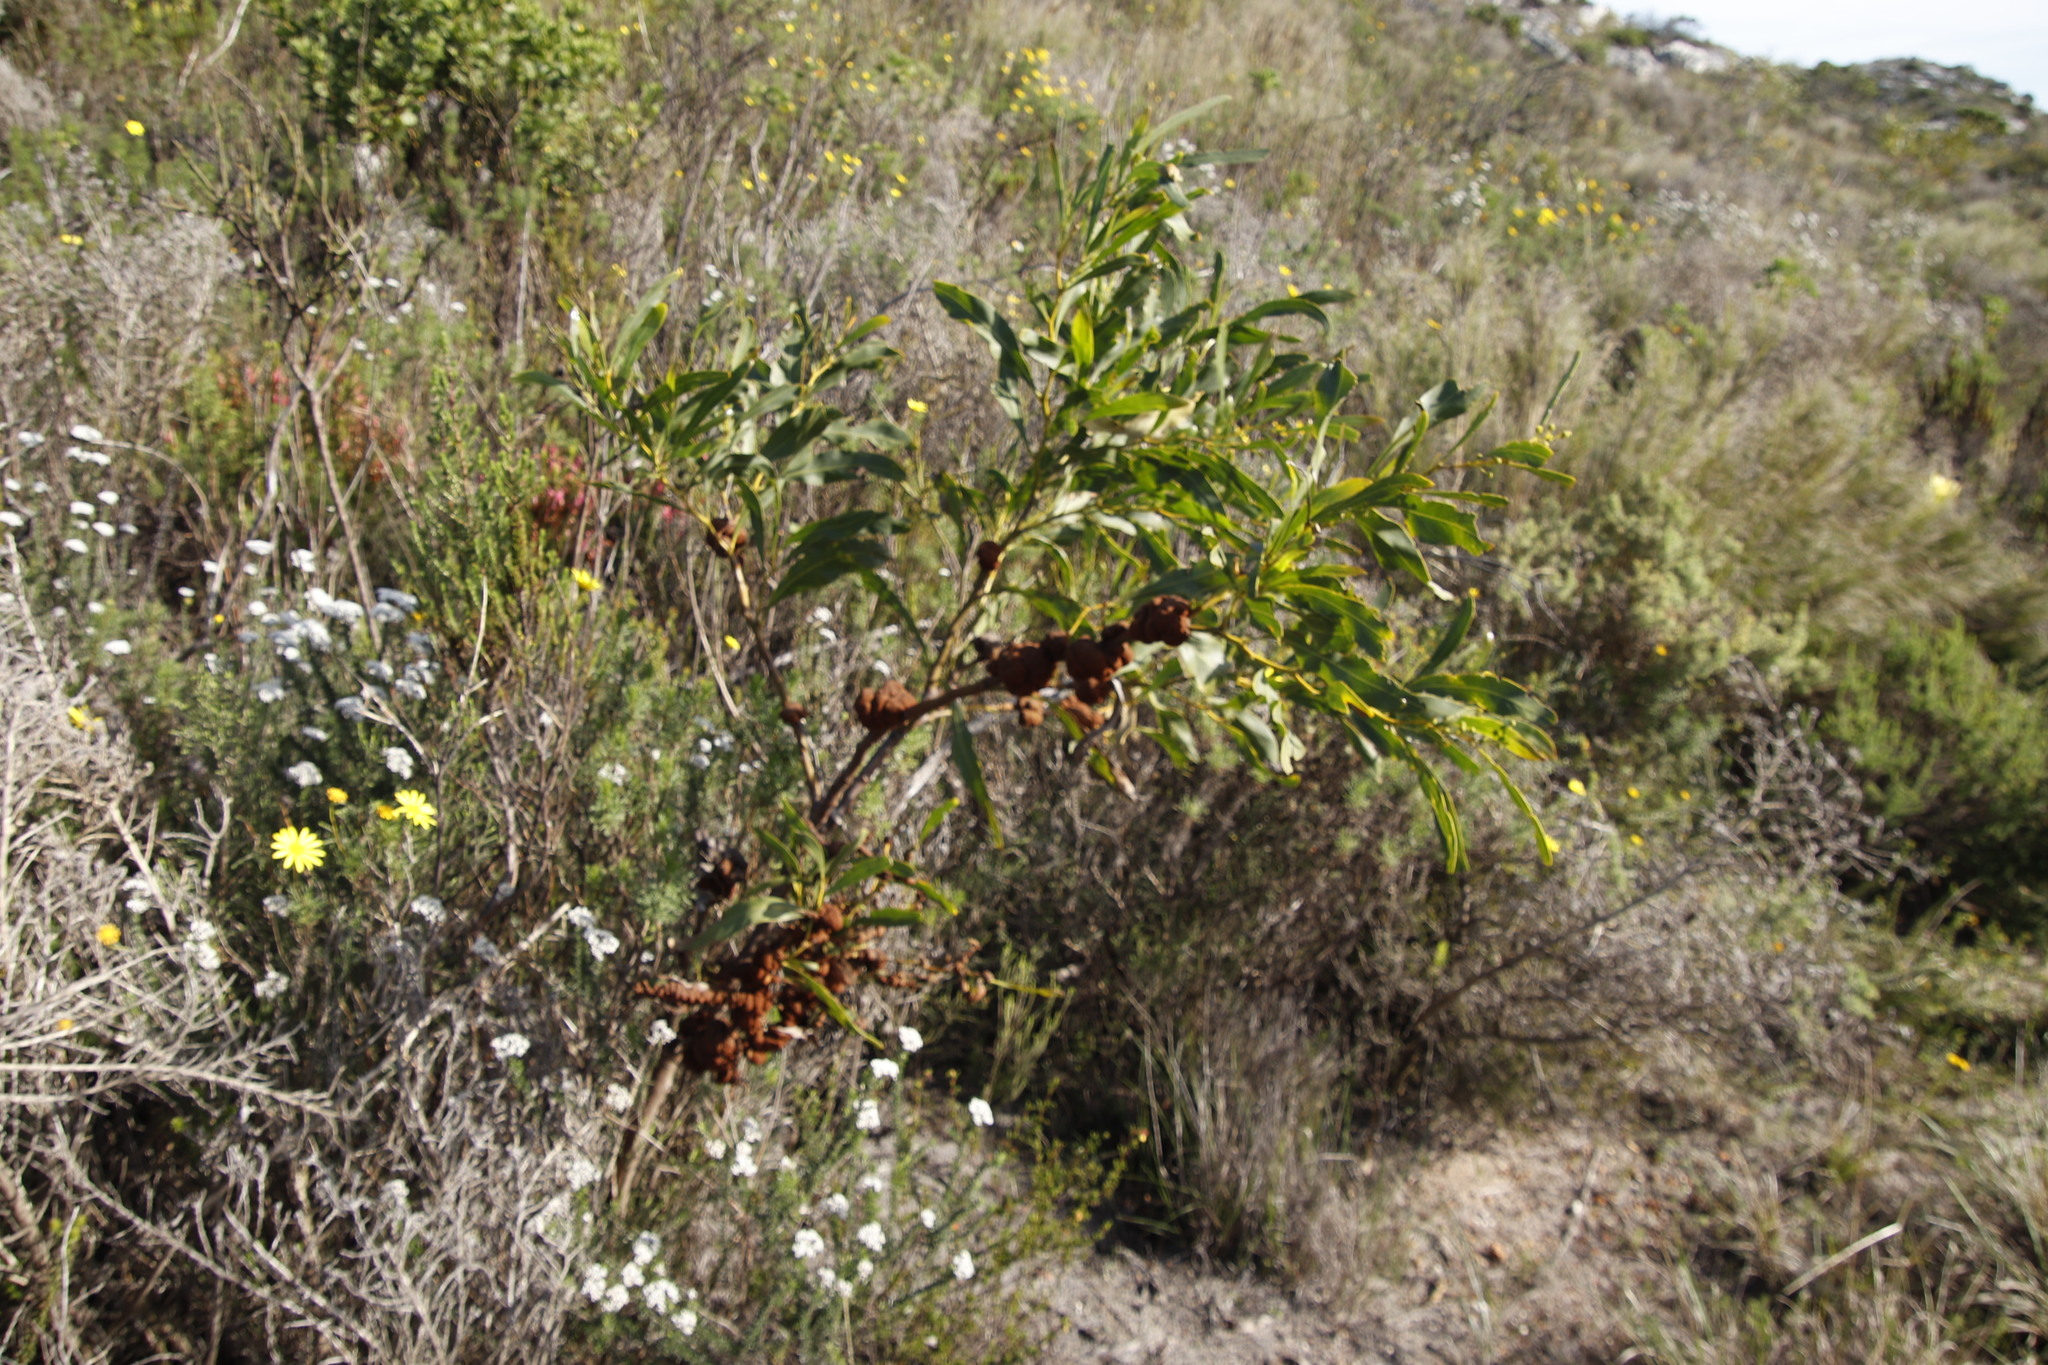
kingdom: Fungi
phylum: Basidiomycota
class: Pucciniomycetes
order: Pucciniales
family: Uromycladiaceae
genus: Uromycladium
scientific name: Uromycladium morrisii
